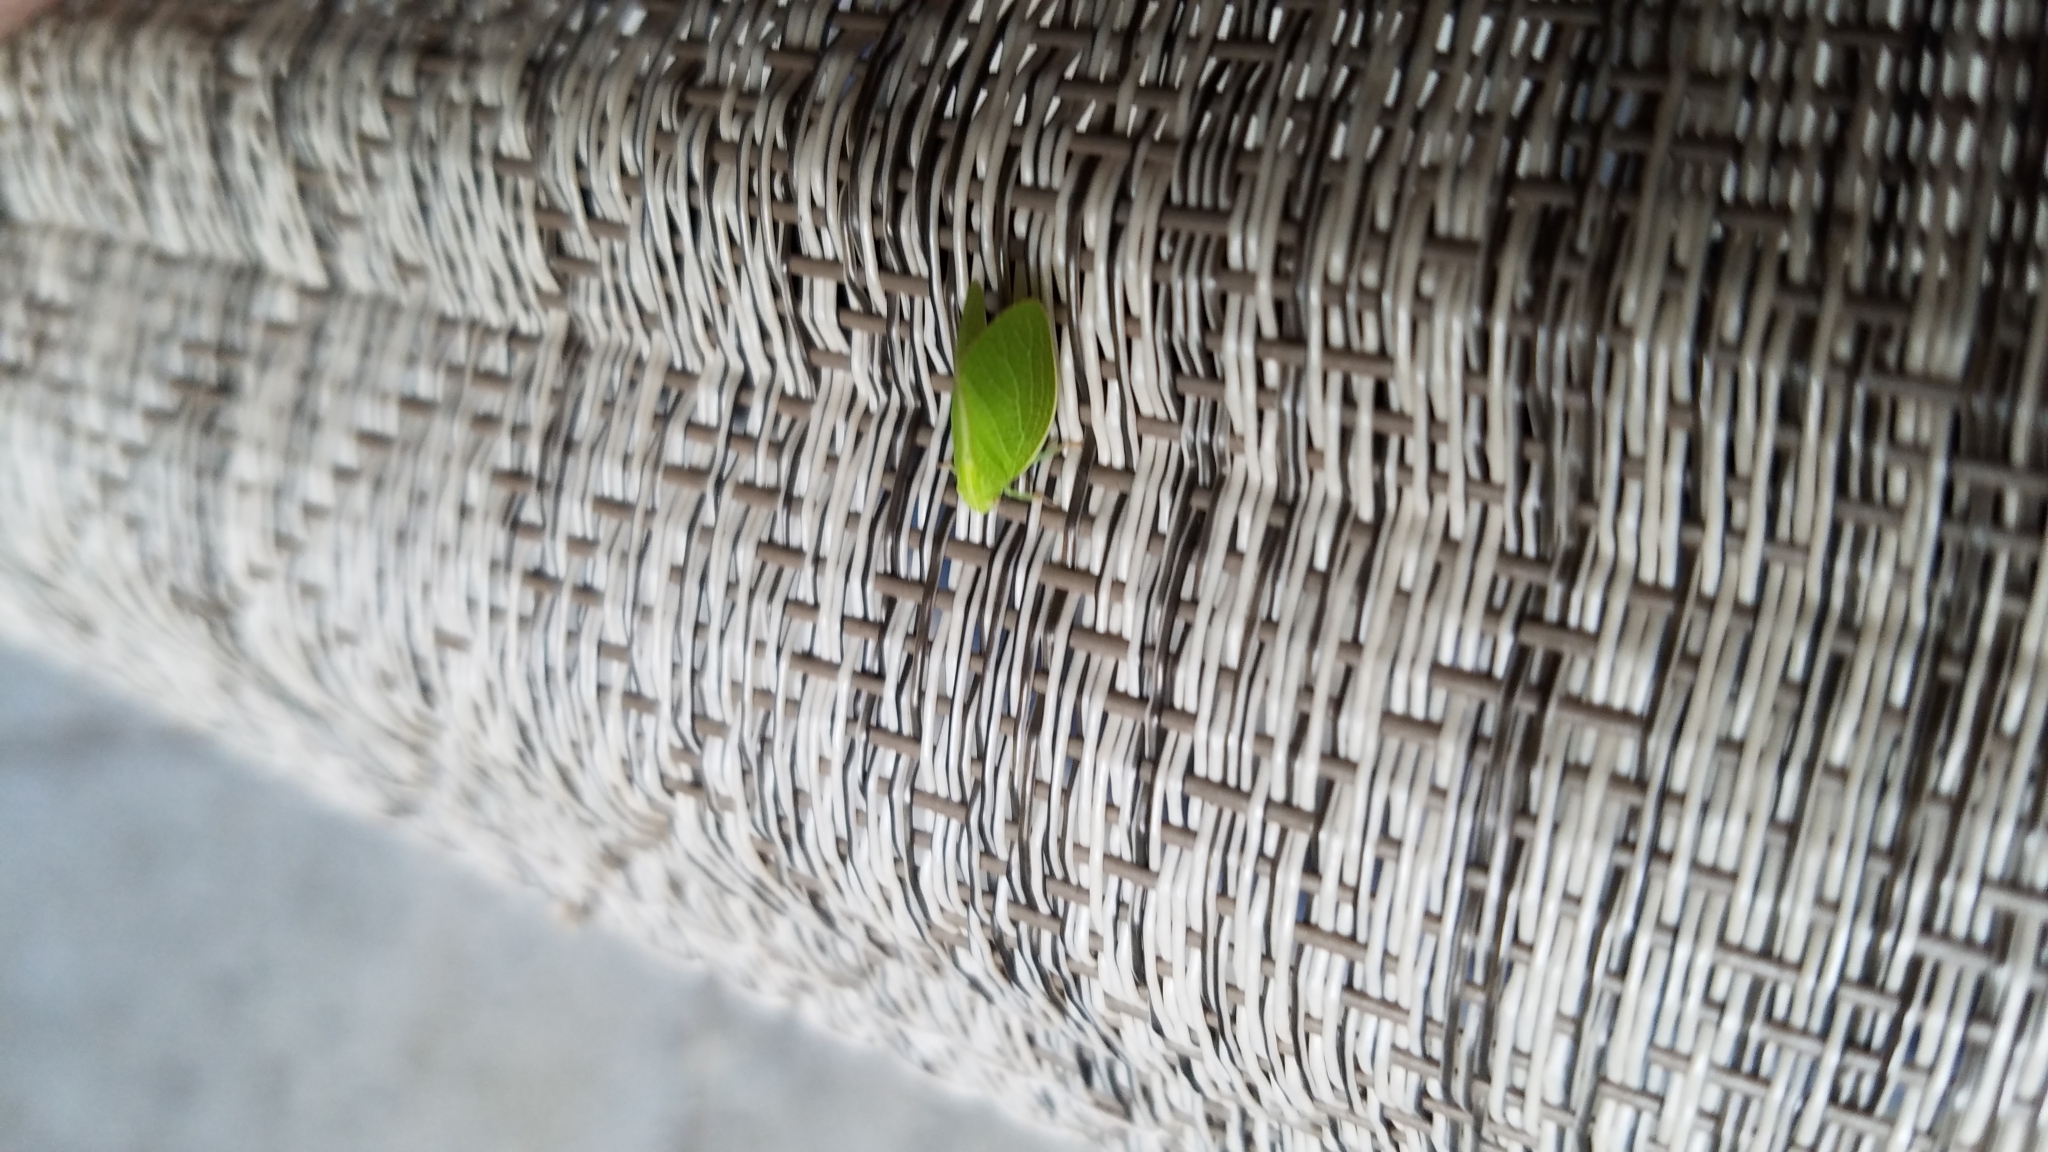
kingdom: Animalia
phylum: Arthropoda
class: Insecta
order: Hemiptera
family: Acanaloniidae
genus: Acanalonia
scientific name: Acanalonia conica
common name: Green cone-headed planthopper
